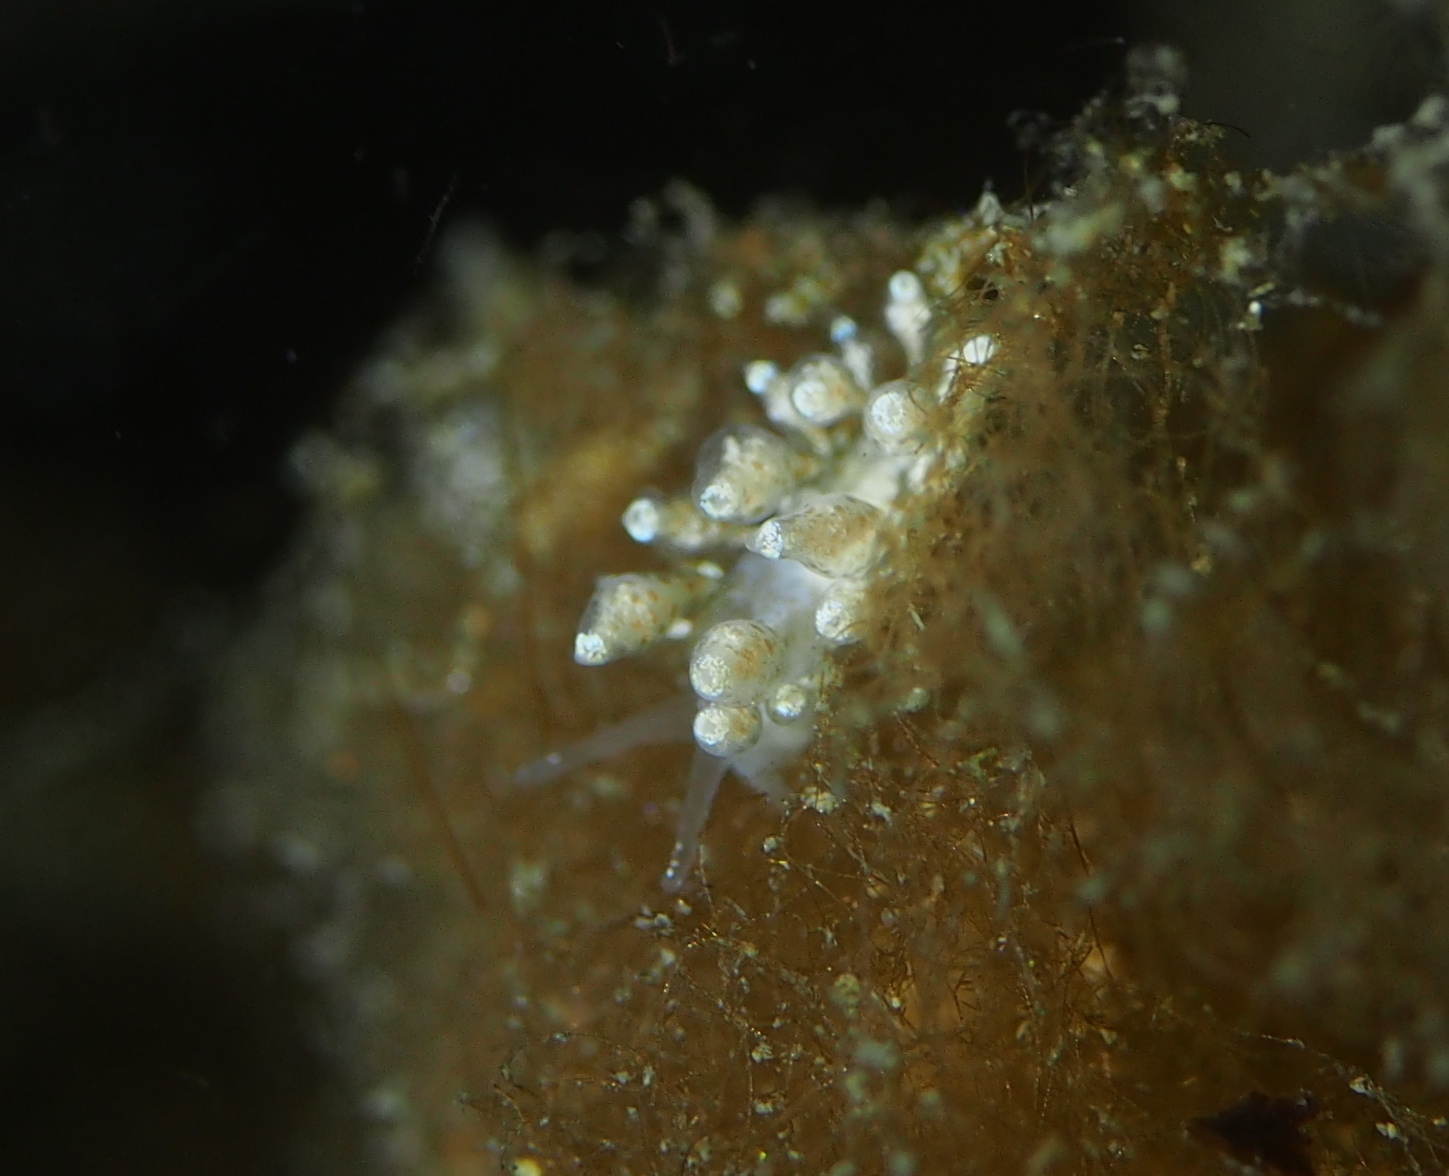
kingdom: Animalia
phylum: Mollusca
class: Gastropoda
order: Nudibranchia
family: Eubranchidae
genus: Eubranchus
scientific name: Eubranchus exiguus
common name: Balloon aeolis
